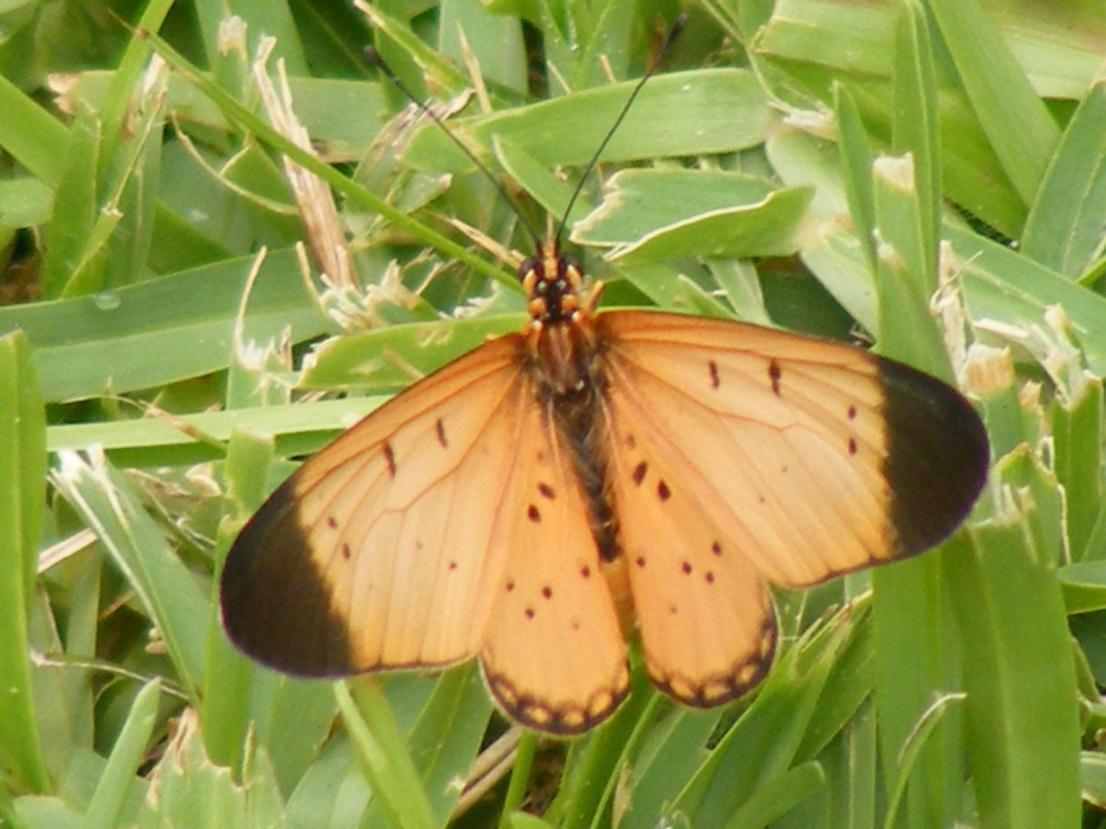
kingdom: Animalia
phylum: Arthropoda
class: Insecta
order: Lepidoptera
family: Nymphalidae
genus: Stephenia
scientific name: Stephenia
